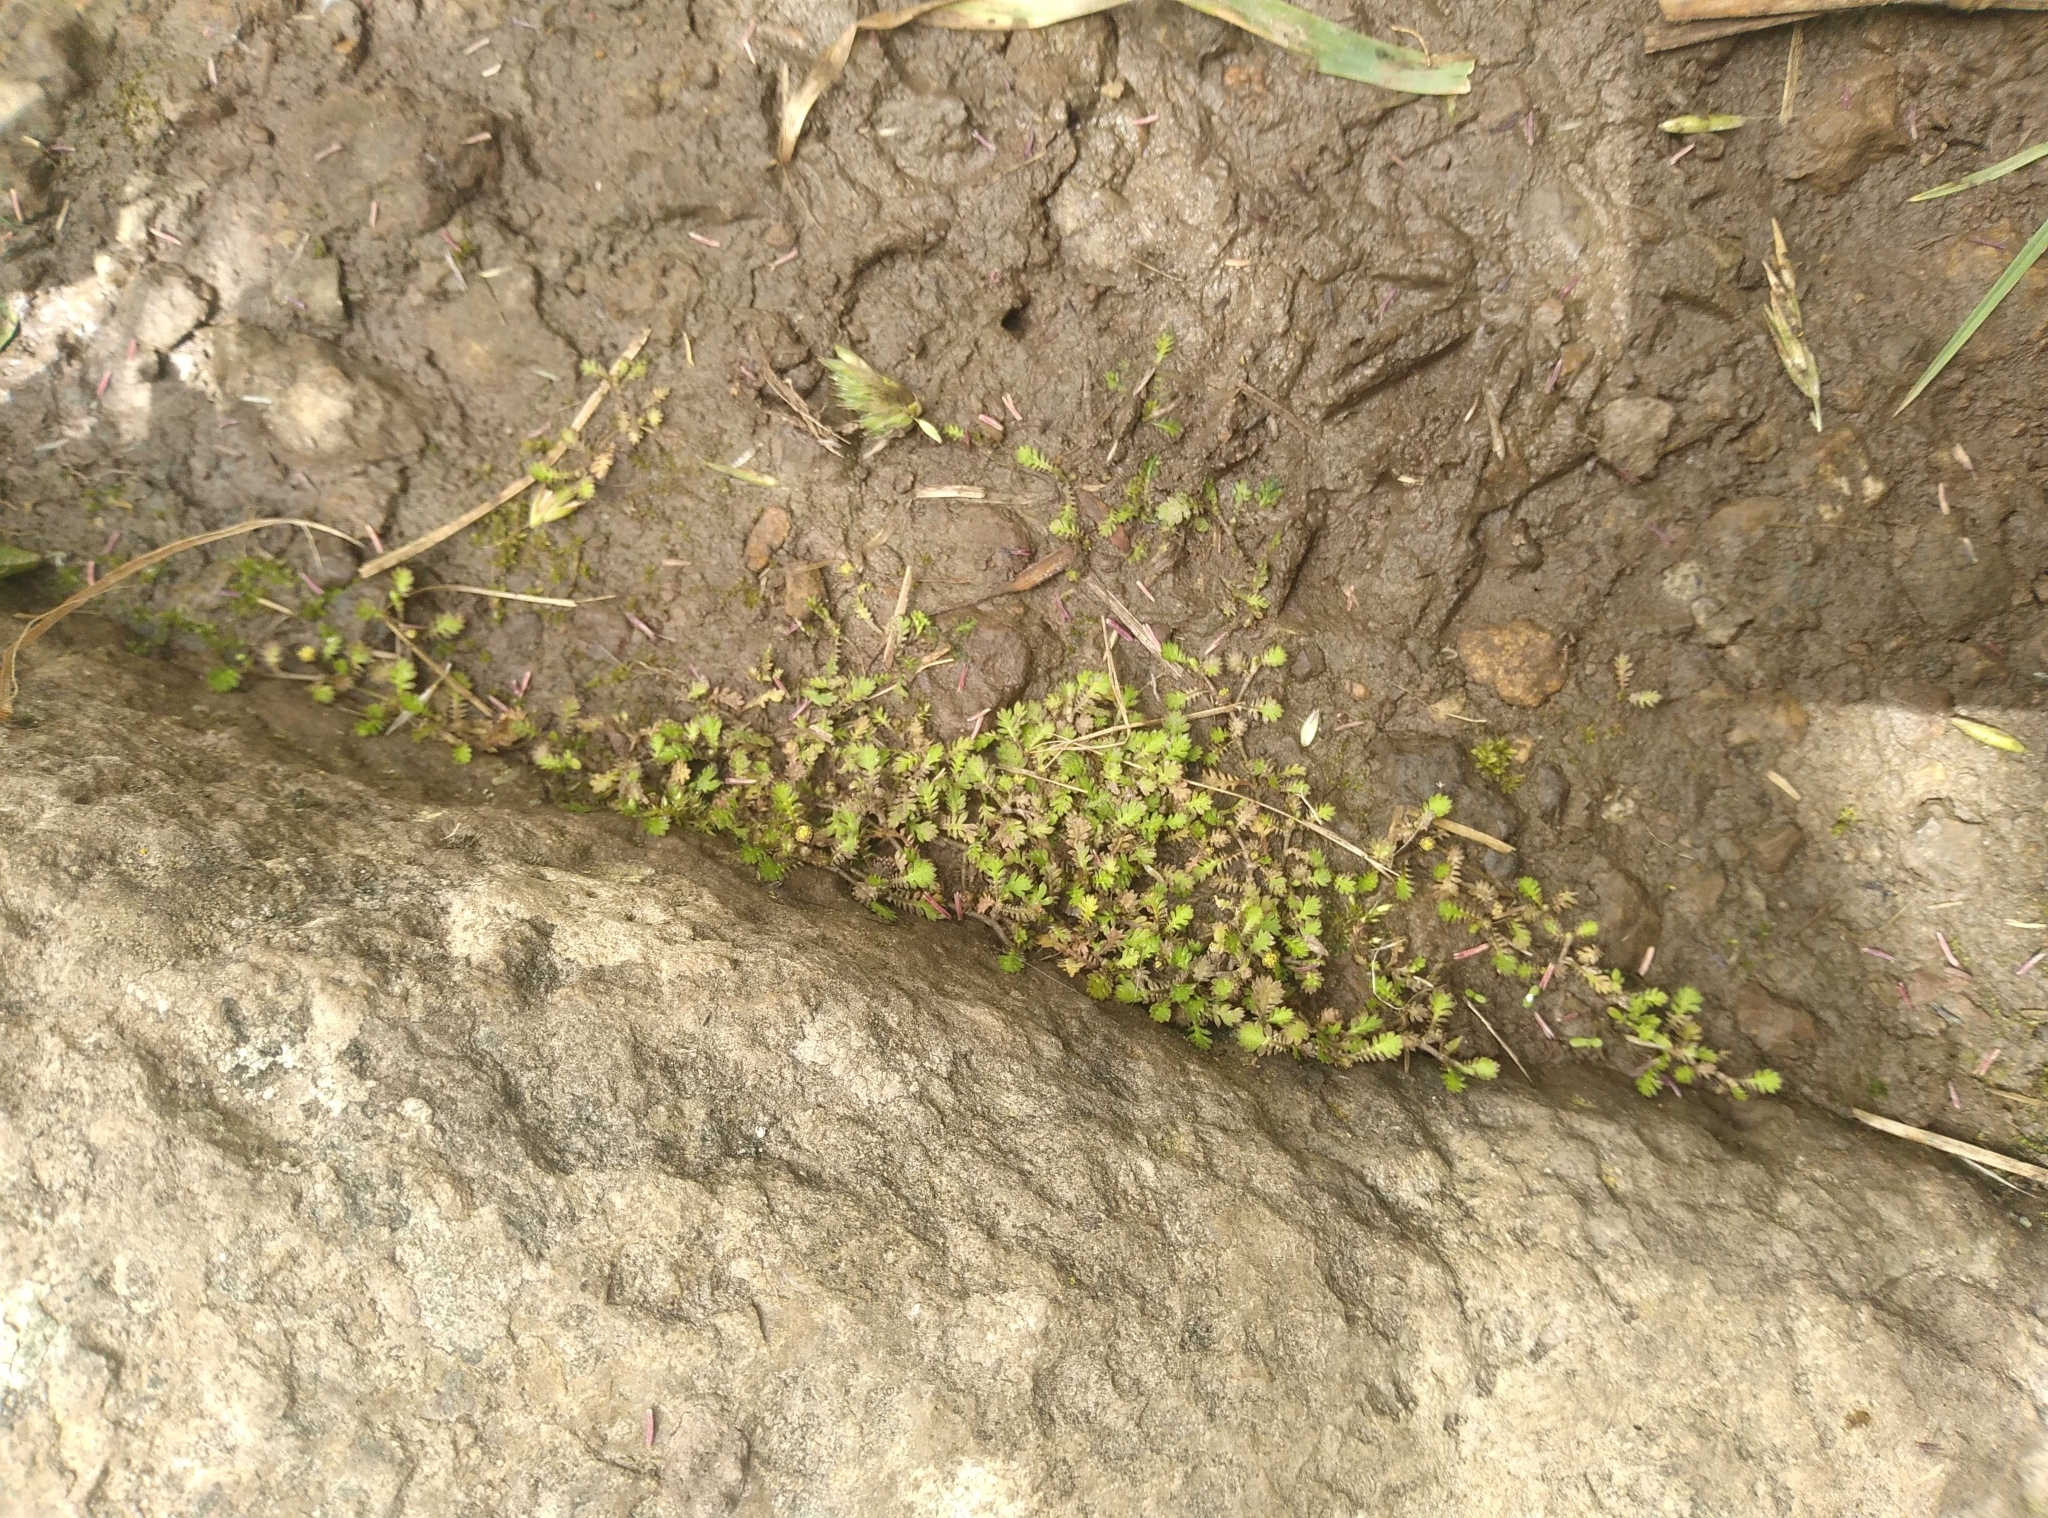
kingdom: Plantae
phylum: Tracheophyta
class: Magnoliopsida
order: Asterales
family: Asteraceae
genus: Leptinella
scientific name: Leptinella nana
